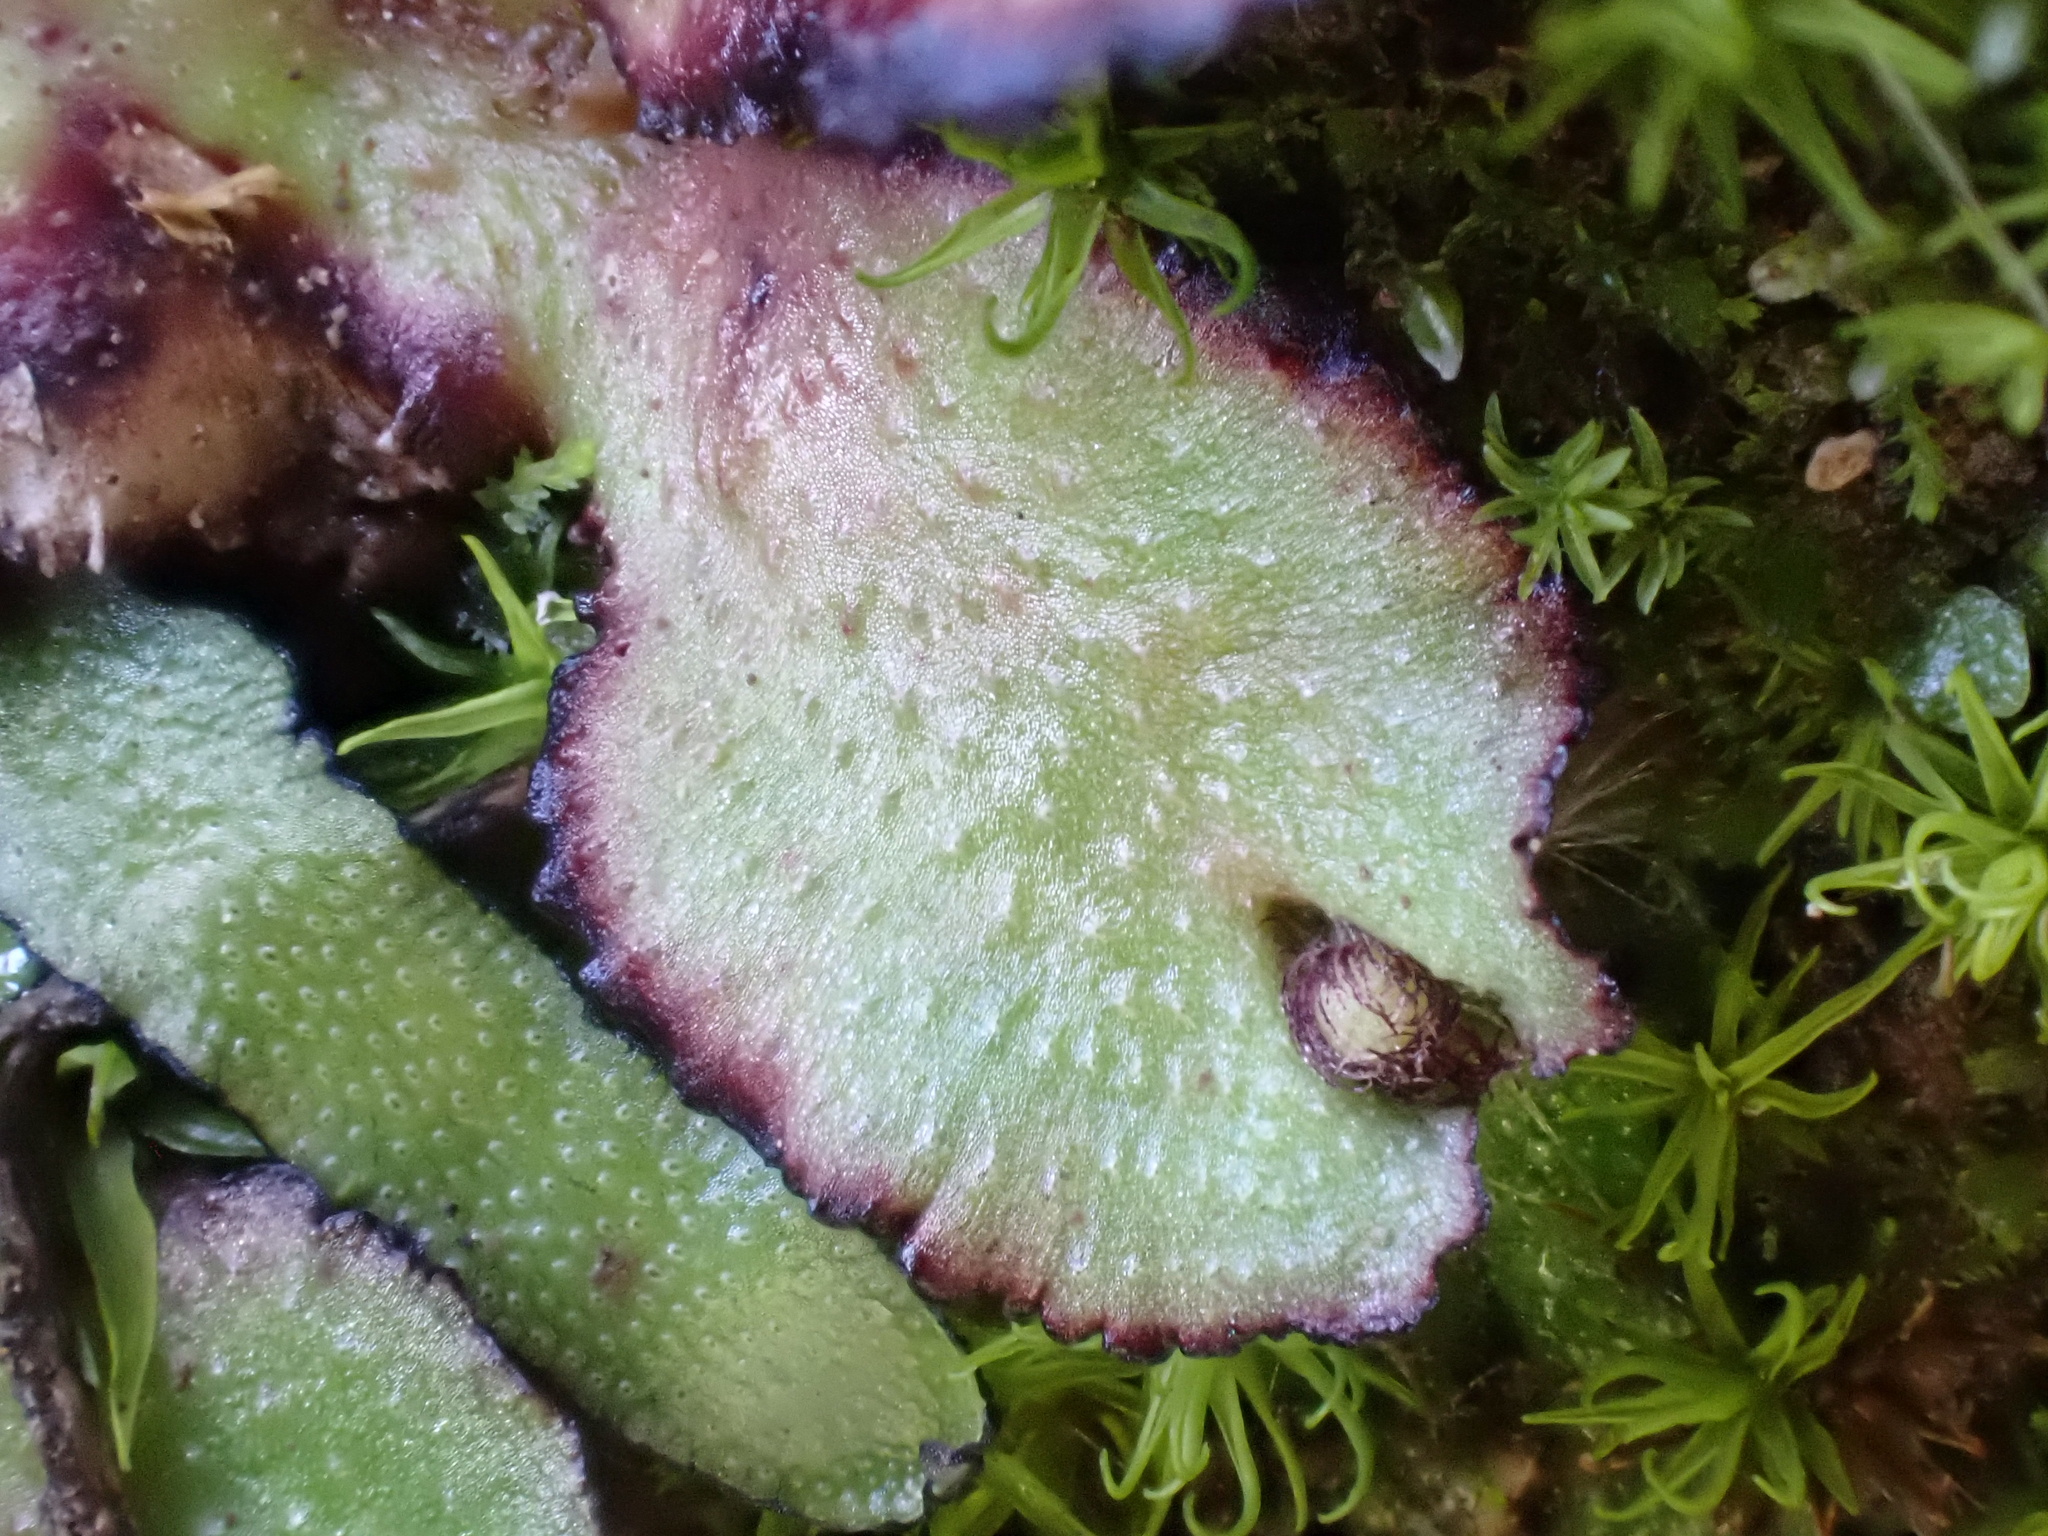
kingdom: Plantae
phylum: Marchantiophyta
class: Marchantiopsida
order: Marchantiales
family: Aytoniaceae
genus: Reboulia
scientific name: Reboulia hemisphaerica
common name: Purple-margined liverwort
